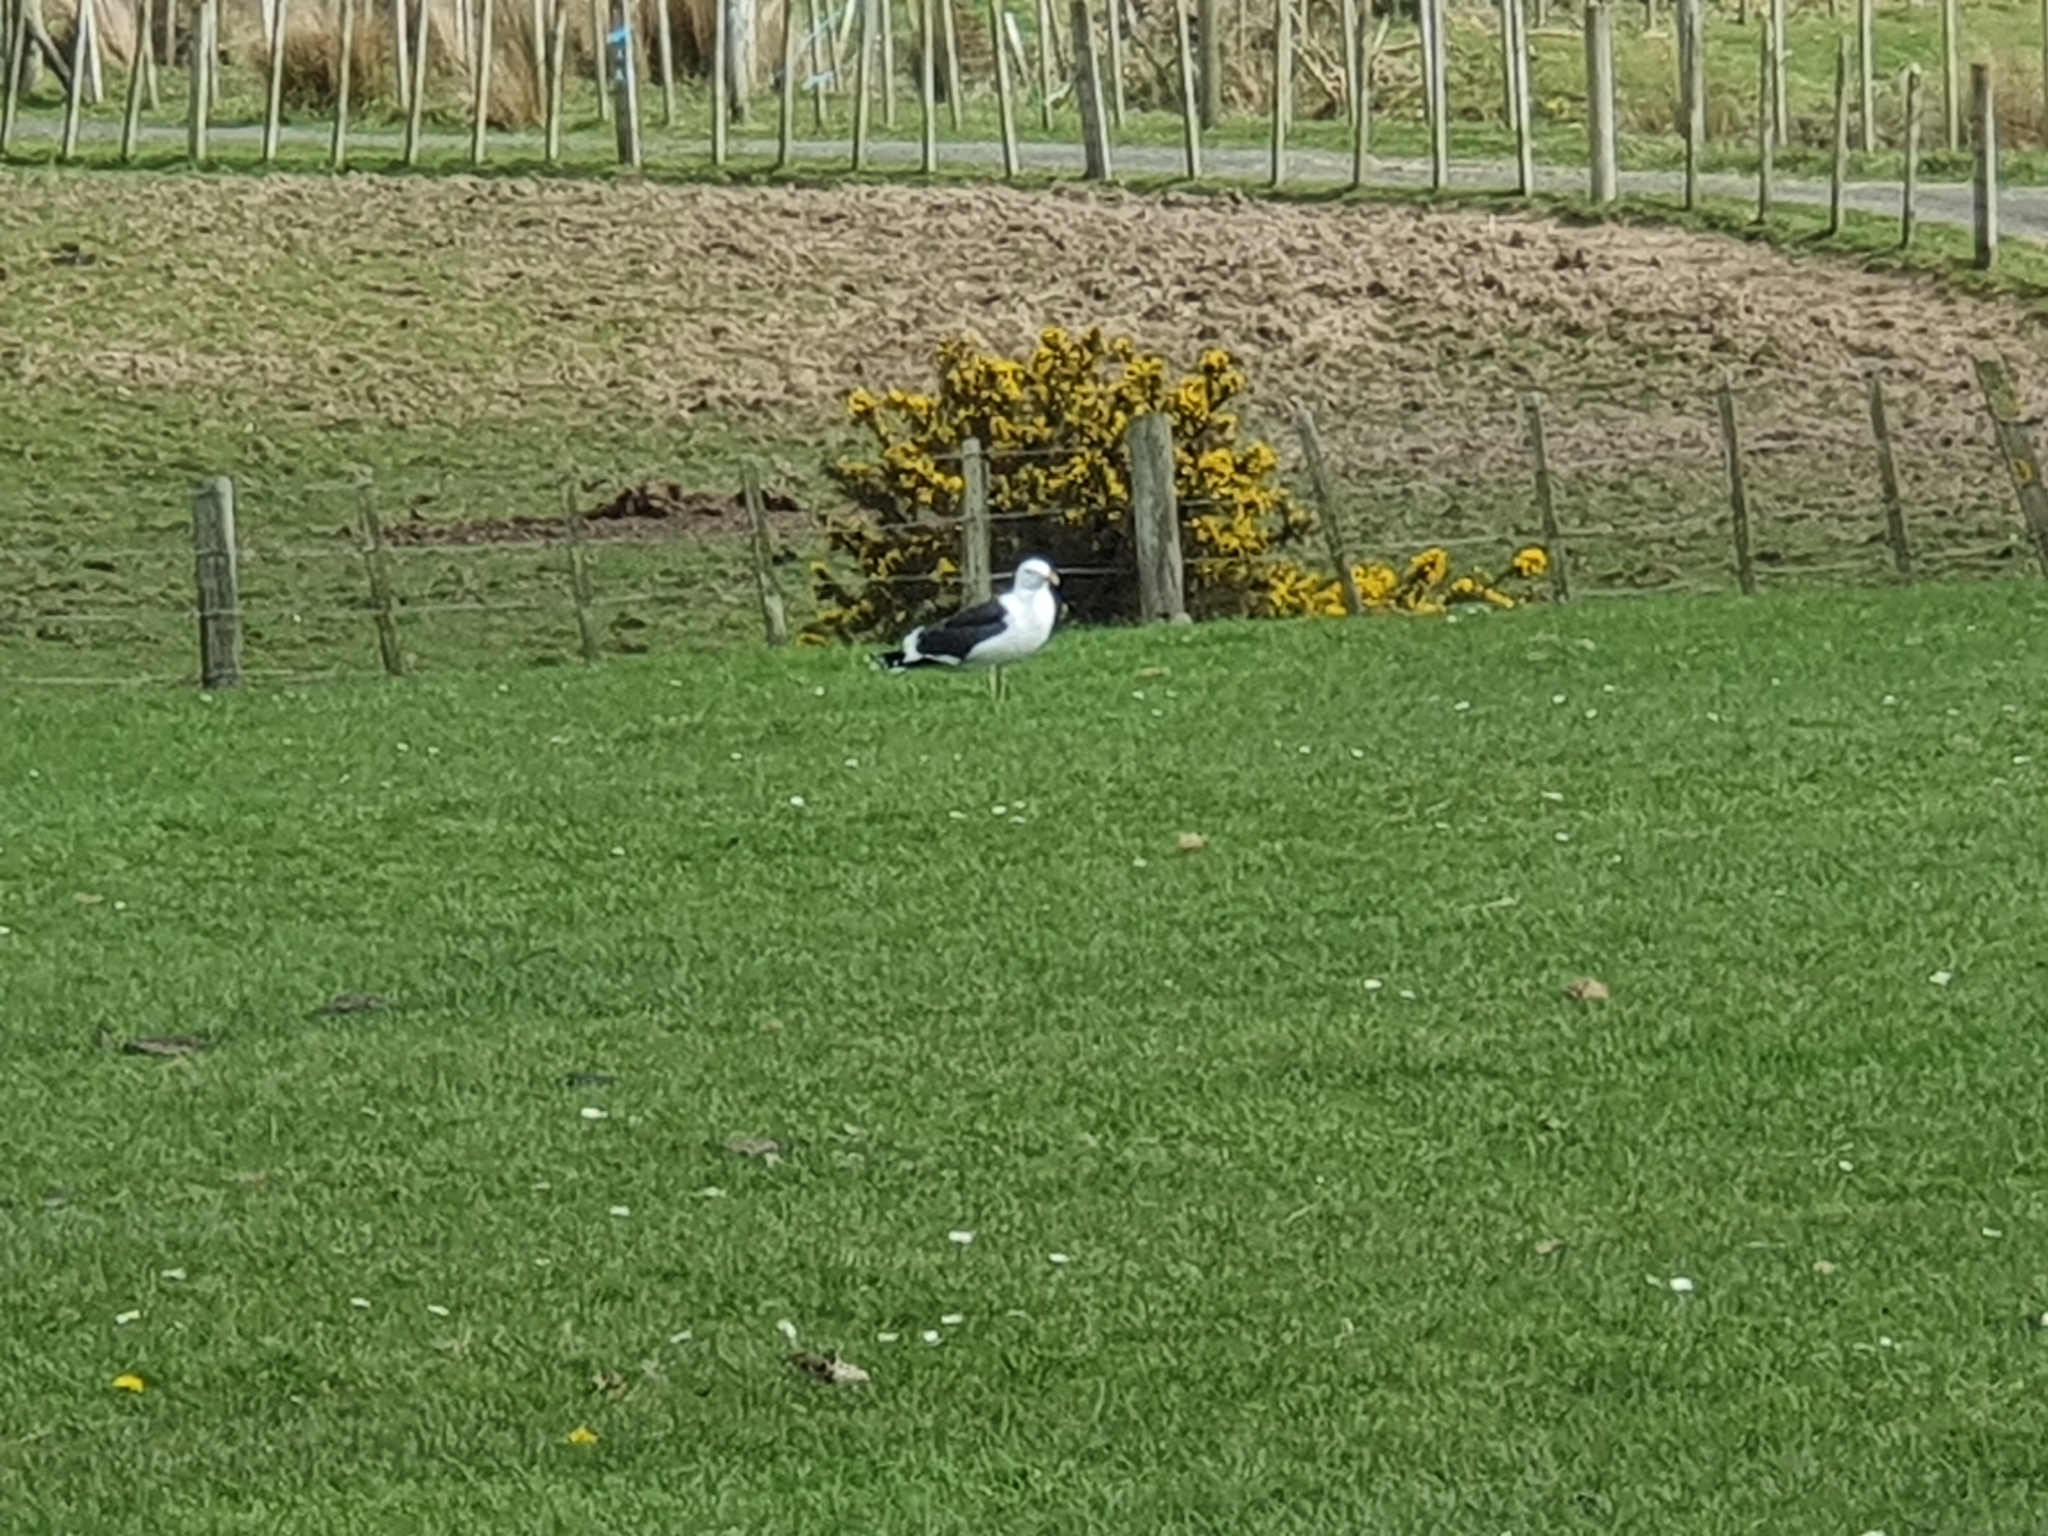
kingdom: Animalia
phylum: Chordata
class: Aves
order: Charadriiformes
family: Laridae
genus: Larus
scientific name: Larus dominicanus
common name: Kelp gull
